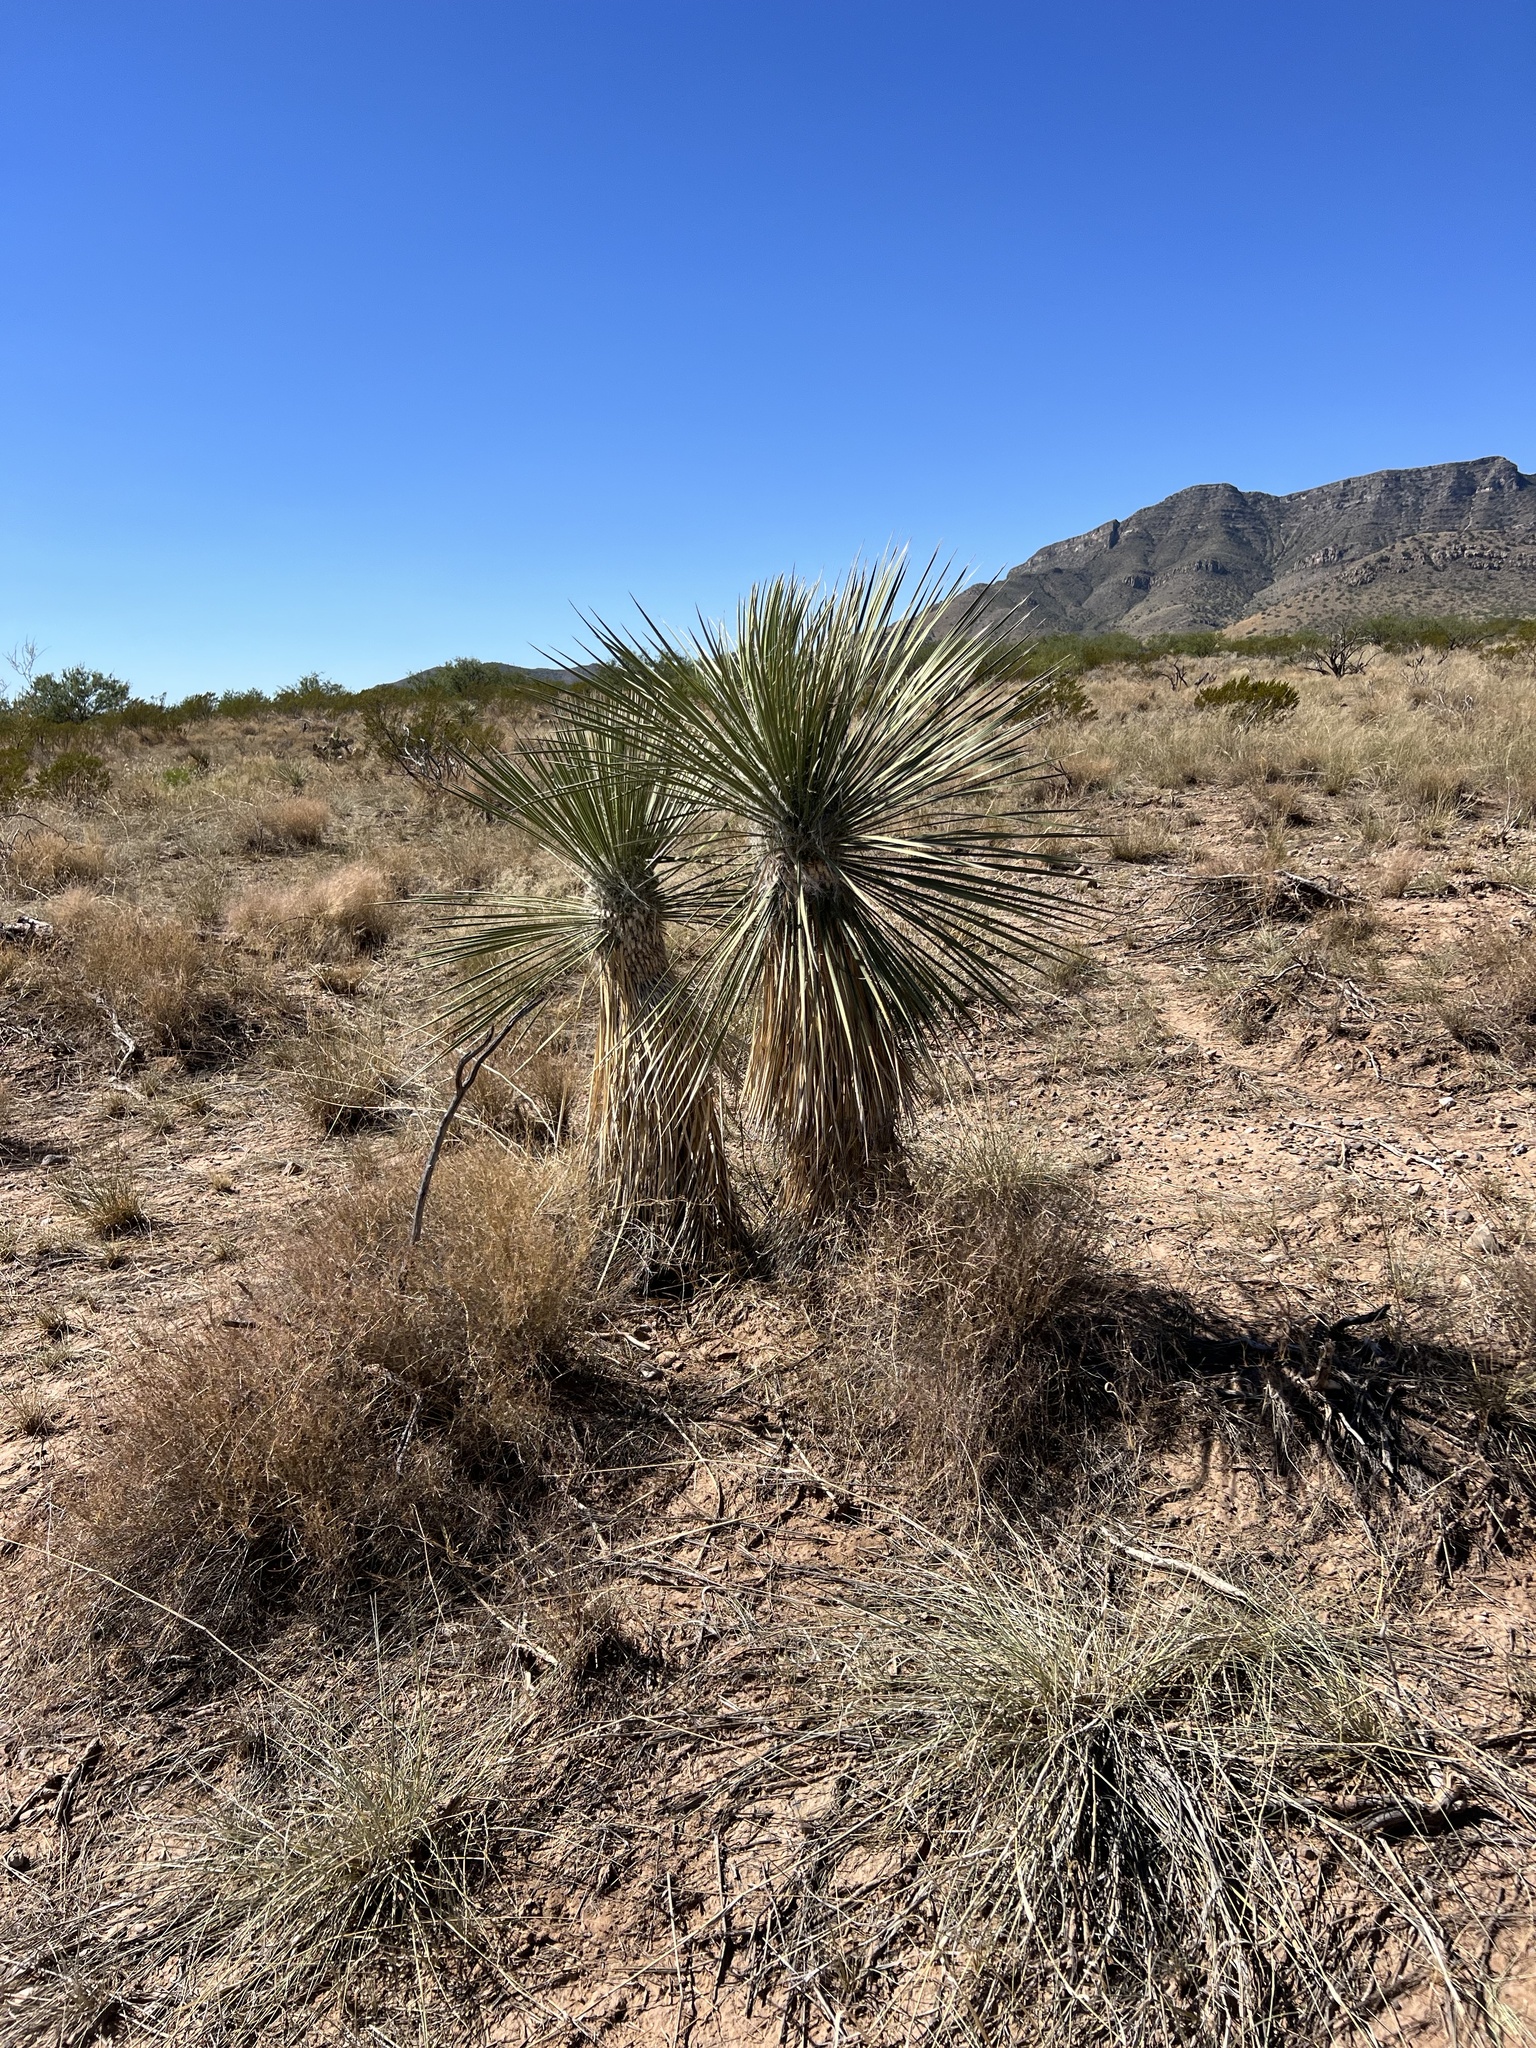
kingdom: Plantae
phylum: Tracheophyta
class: Liliopsida
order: Asparagales
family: Asparagaceae
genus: Yucca
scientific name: Yucca elata
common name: Palmella
